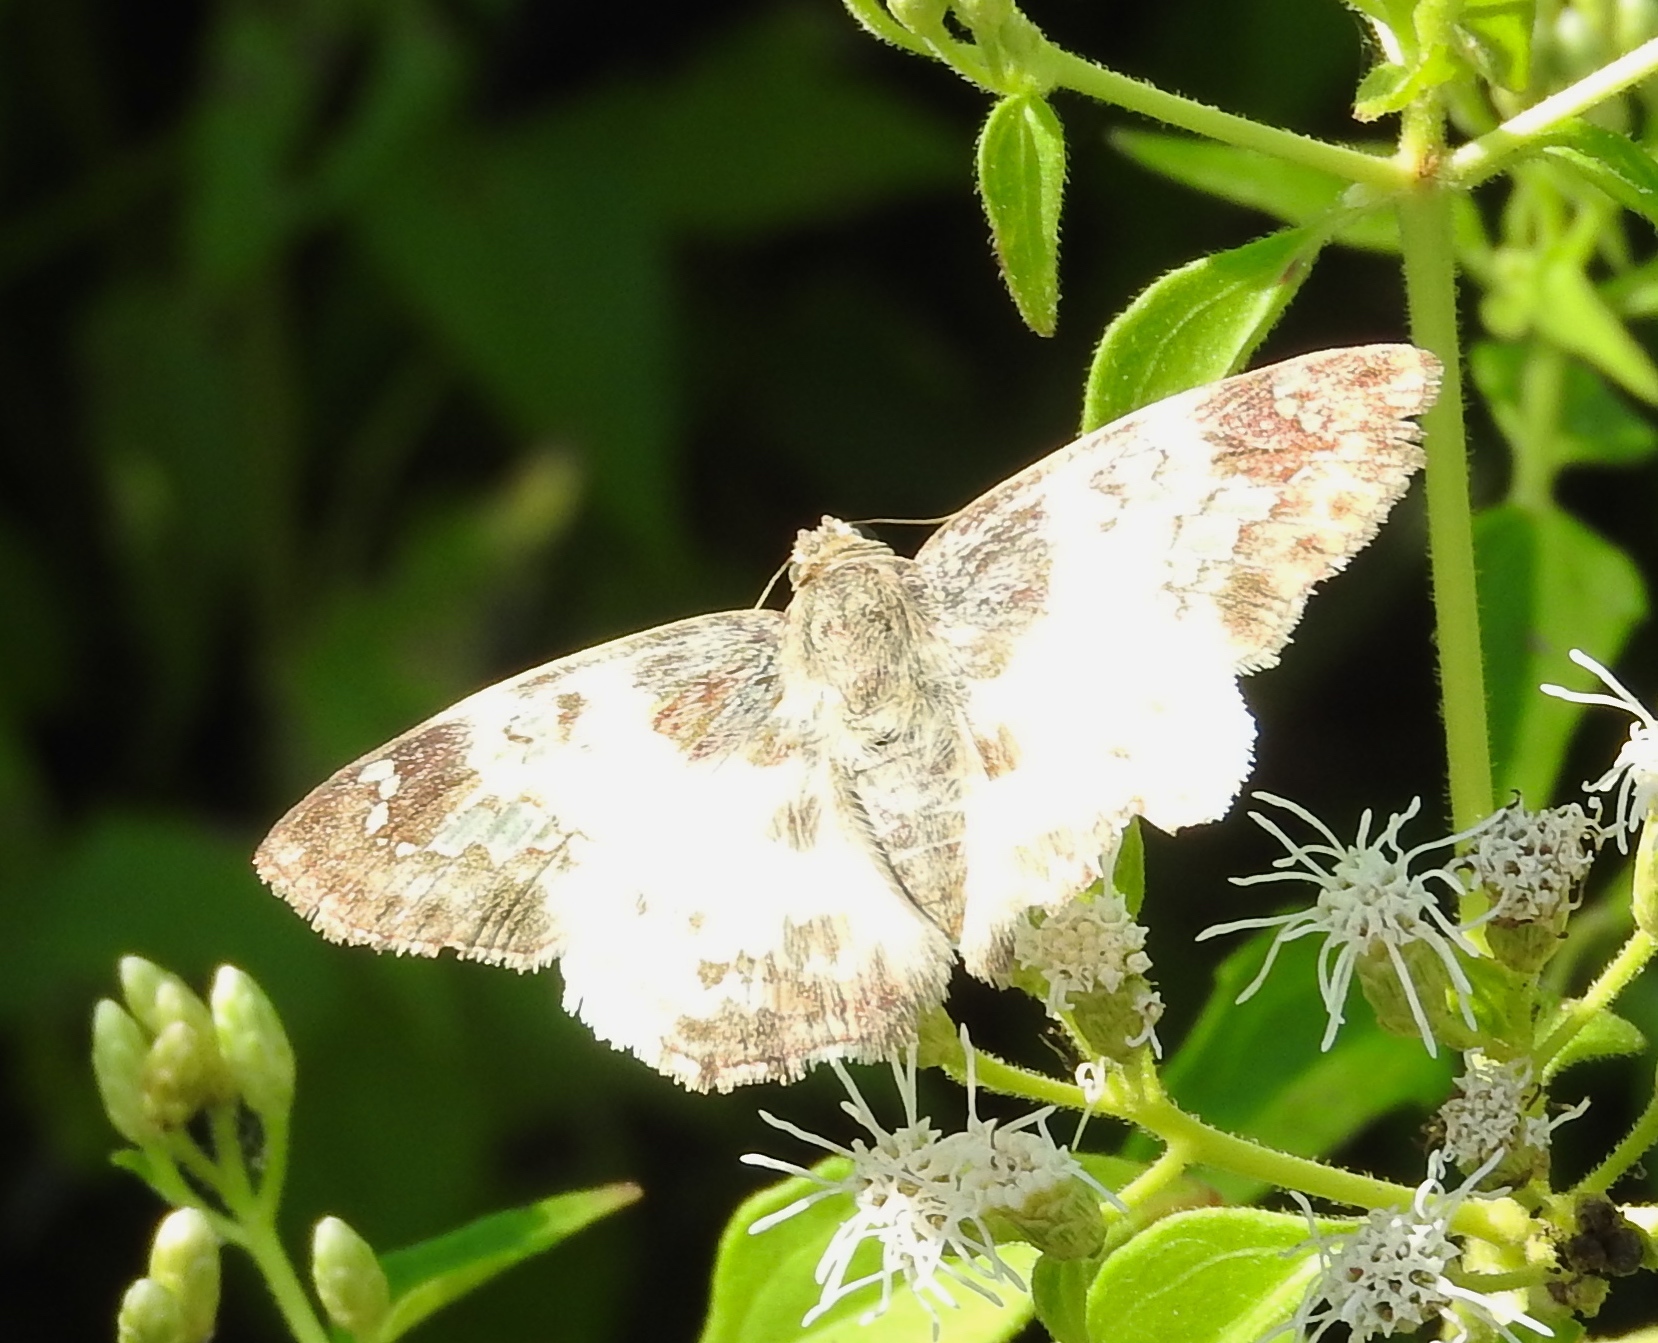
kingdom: Animalia
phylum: Arthropoda
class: Insecta
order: Lepidoptera
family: Hesperiidae
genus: Polyctor
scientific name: Polyctor cleta
